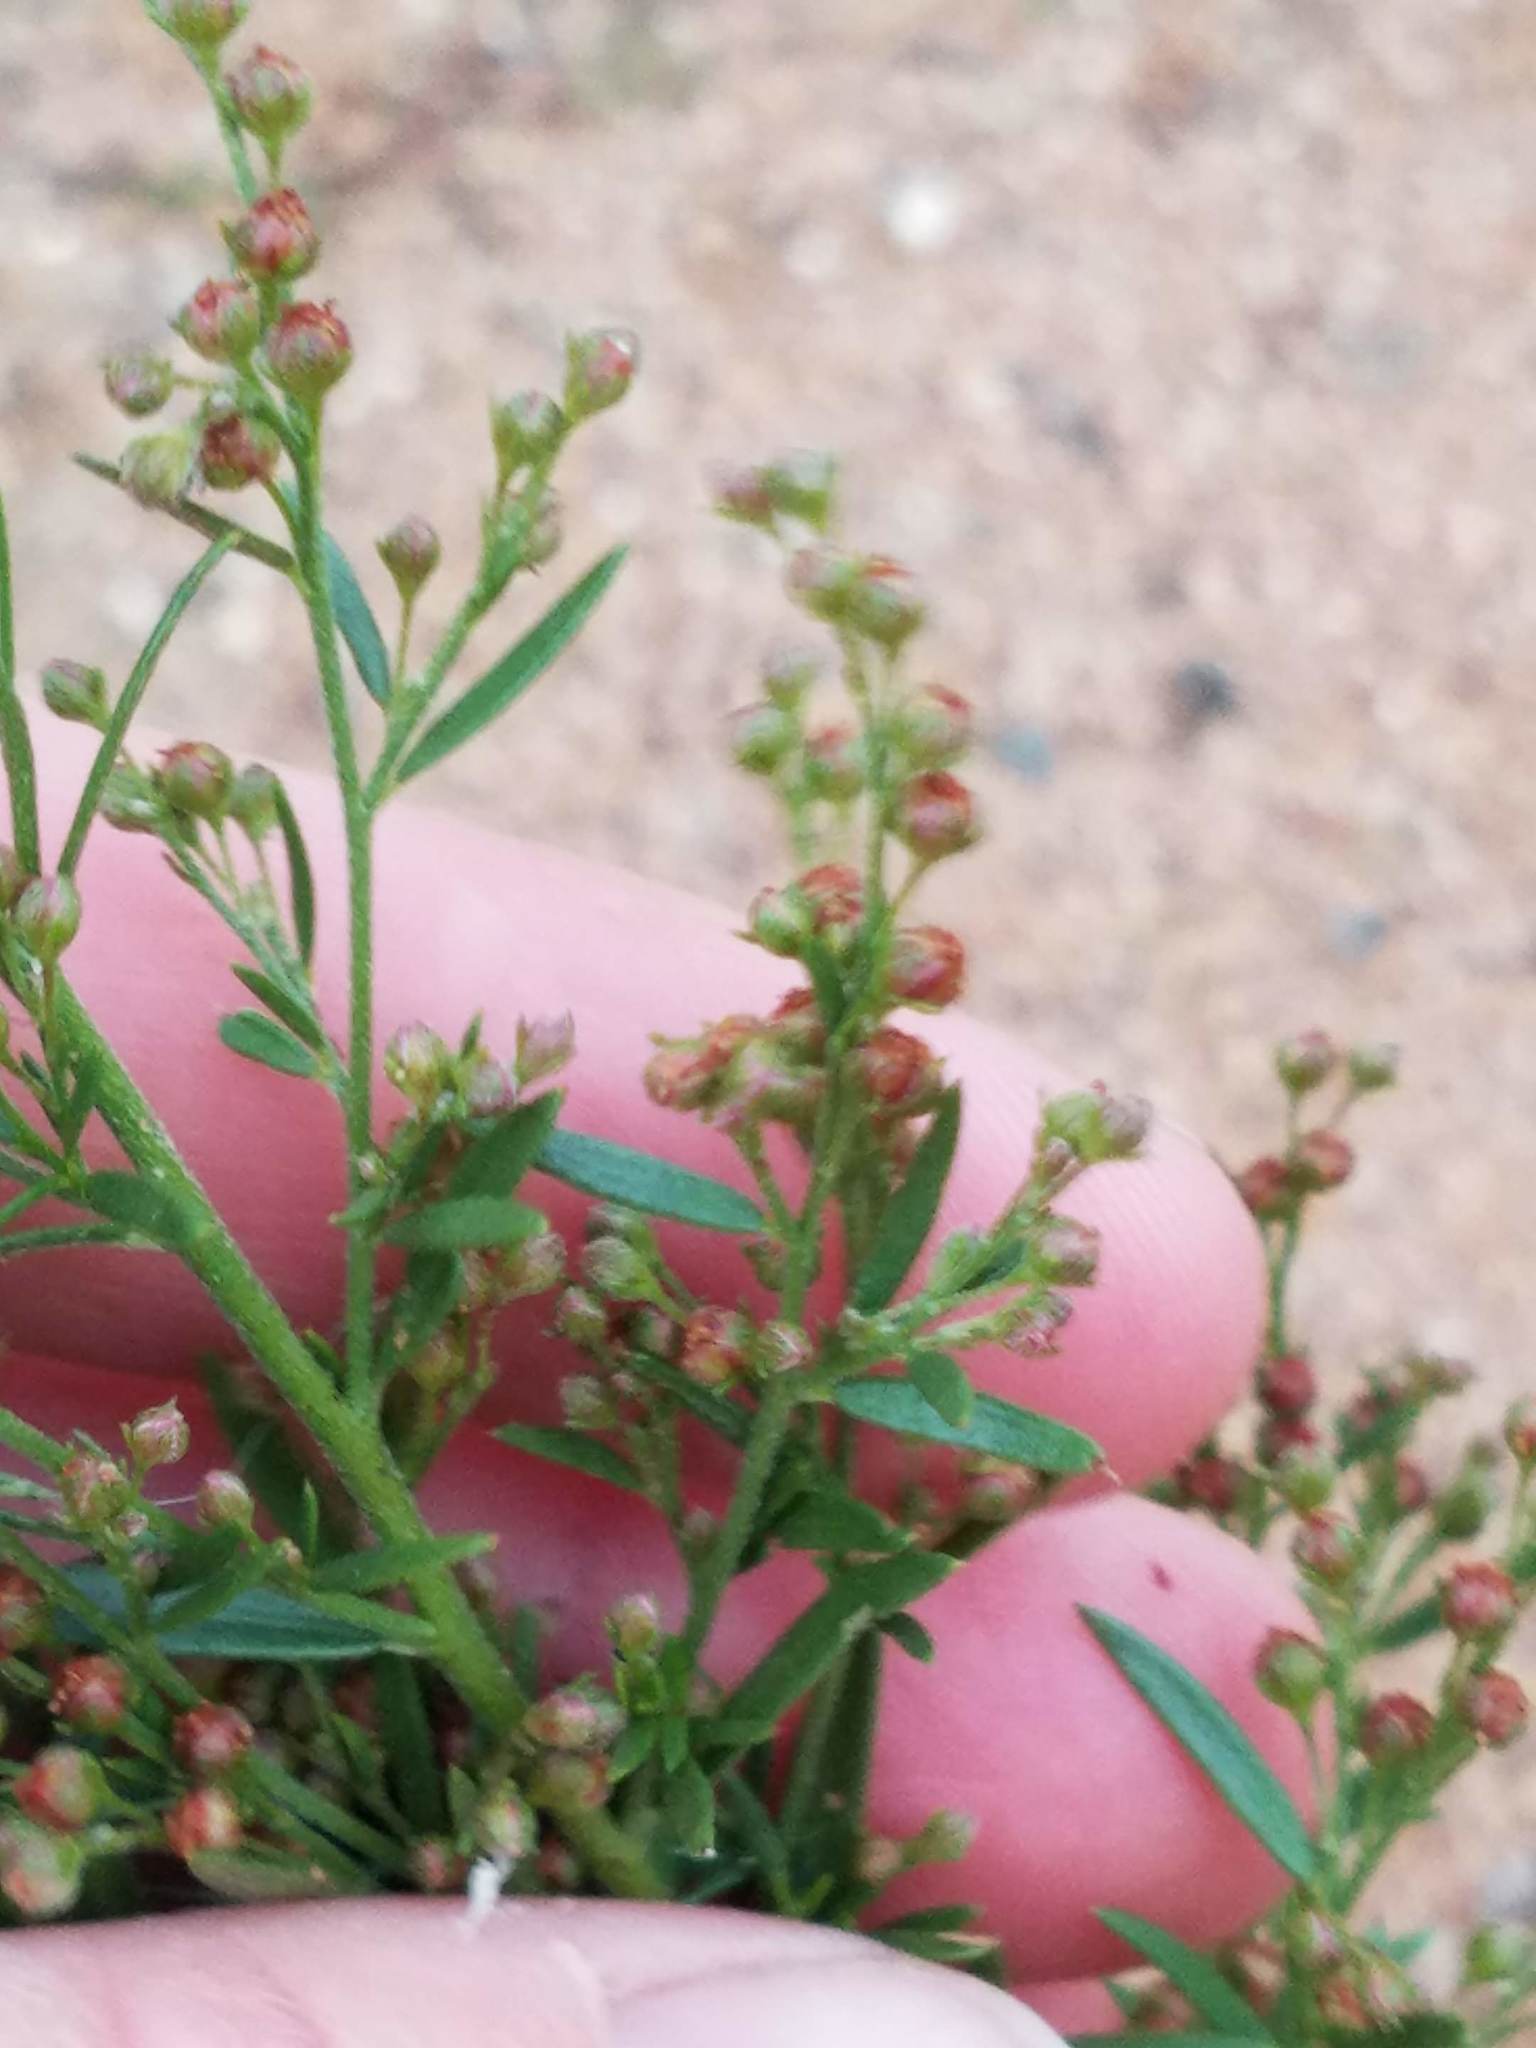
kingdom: Plantae
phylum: Tracheophyta
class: Magnoliopsida
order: Malvales
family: Cistaceae
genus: Lechea
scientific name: Lechea intermedia
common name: Intermediate pinweed
